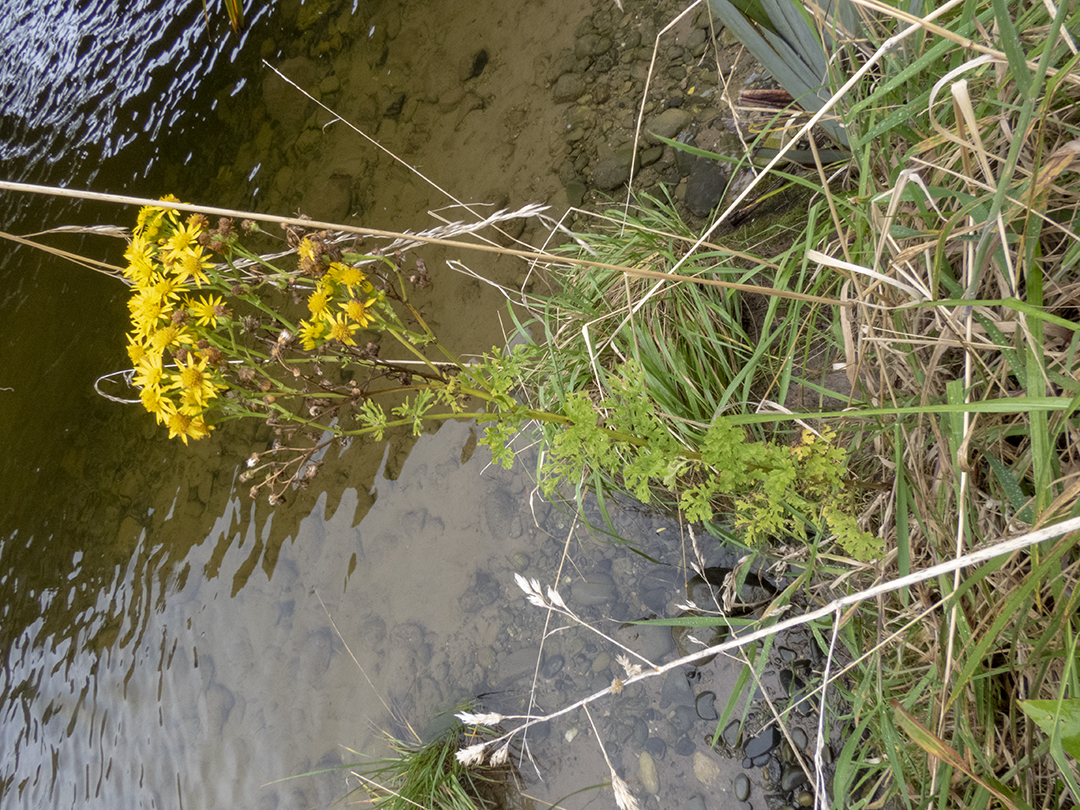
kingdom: Plantae
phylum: Tracheophyta
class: Magnoliopsida
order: Asterales
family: Asteraceae
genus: Jacobaea
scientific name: Jacobaea vulgaris
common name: Stinking willie
